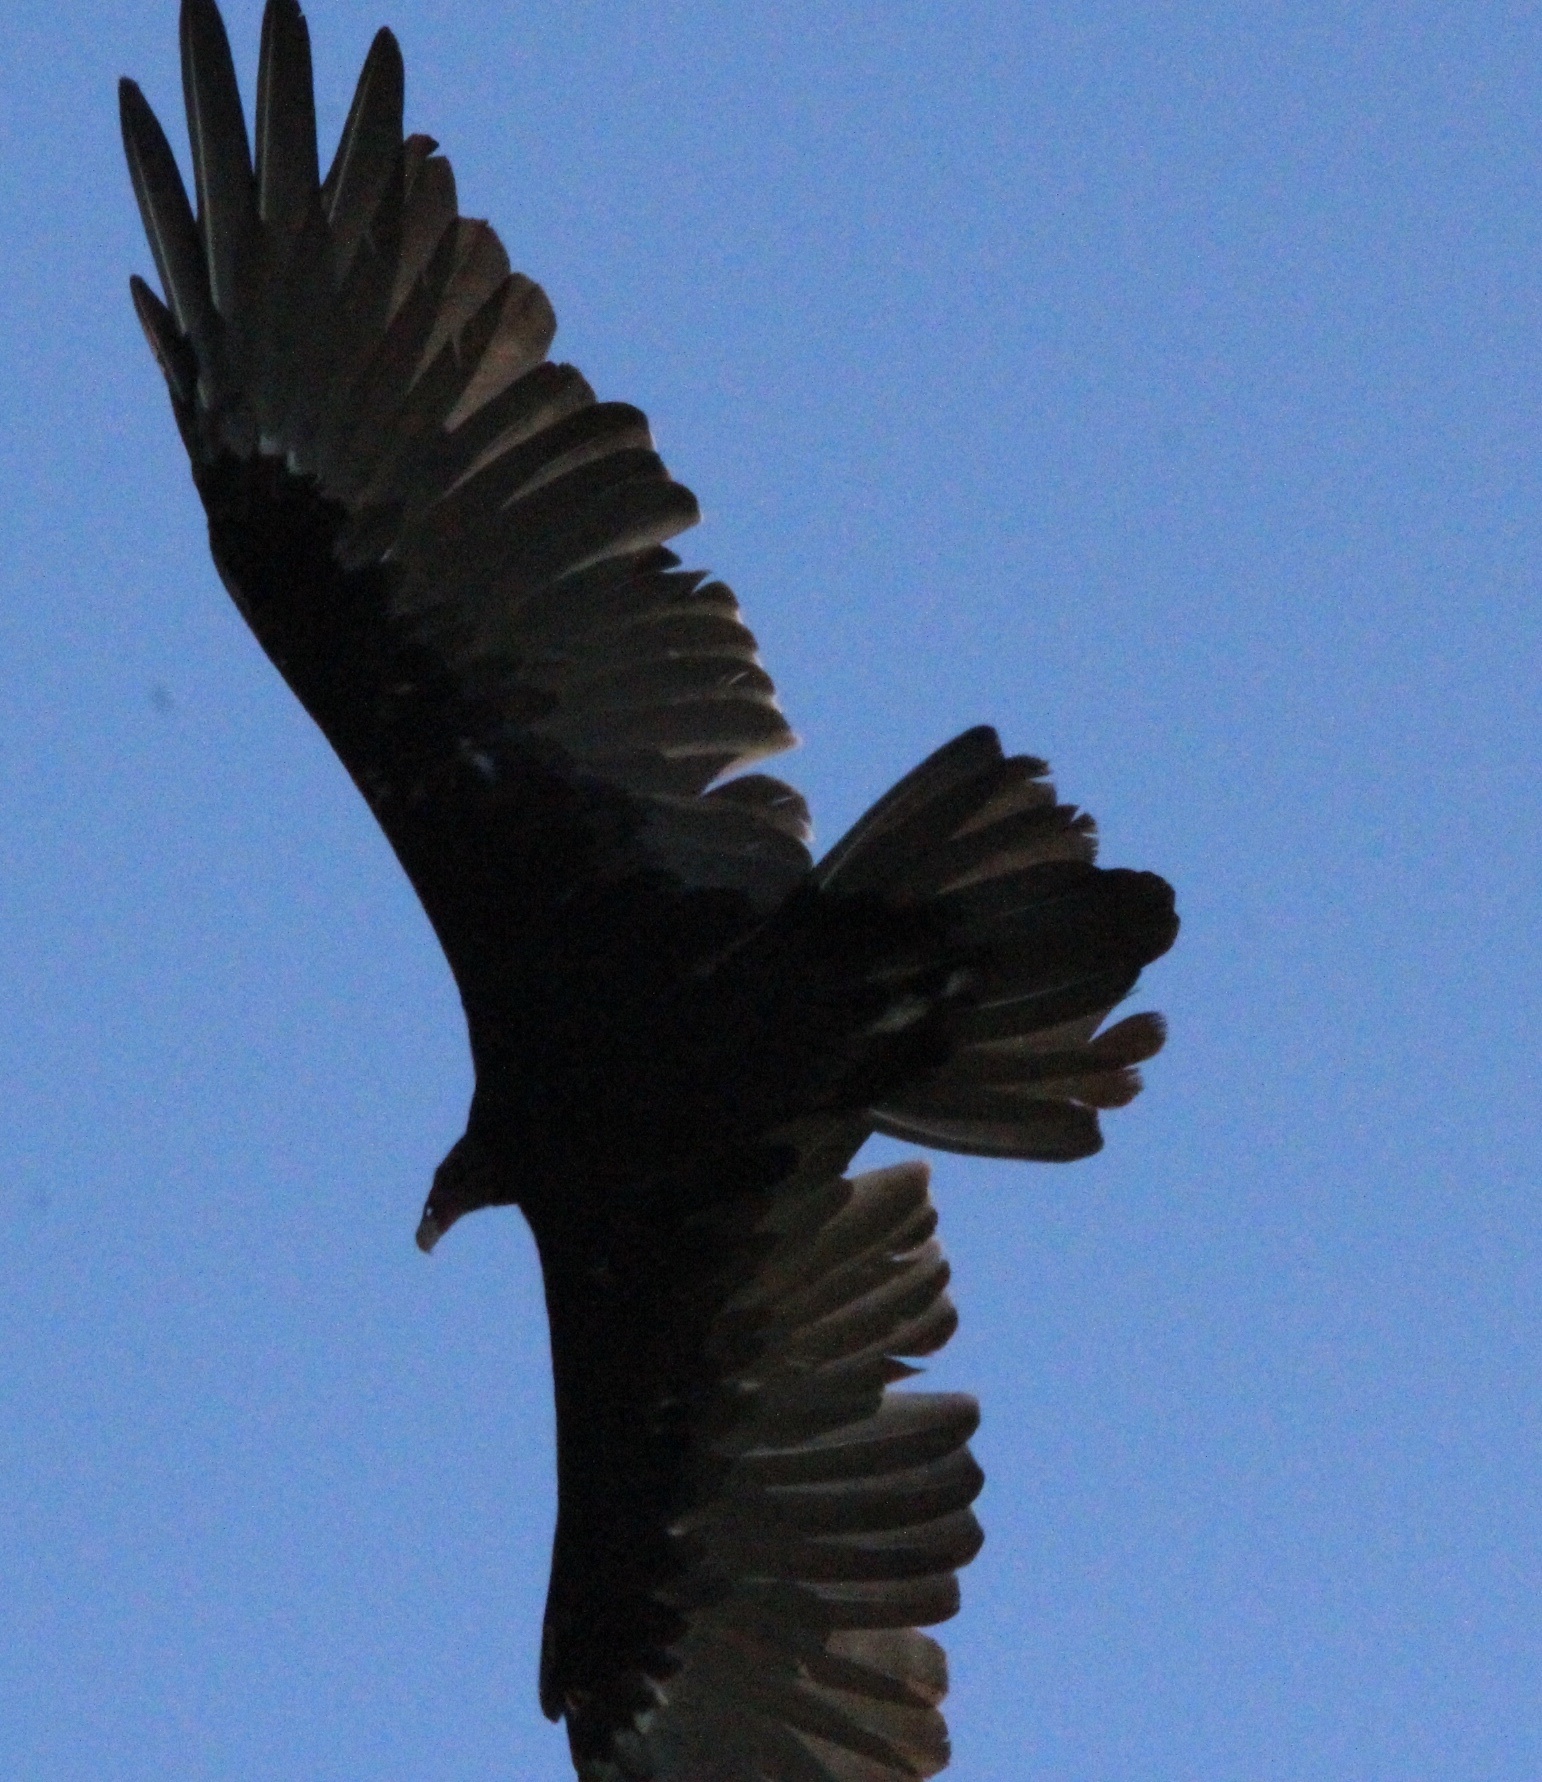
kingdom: Animalia
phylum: Chordata
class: Aves
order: Accipitriformes
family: Cathartidae
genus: Cathartes
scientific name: Cathartes aura
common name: Turkey vulture
